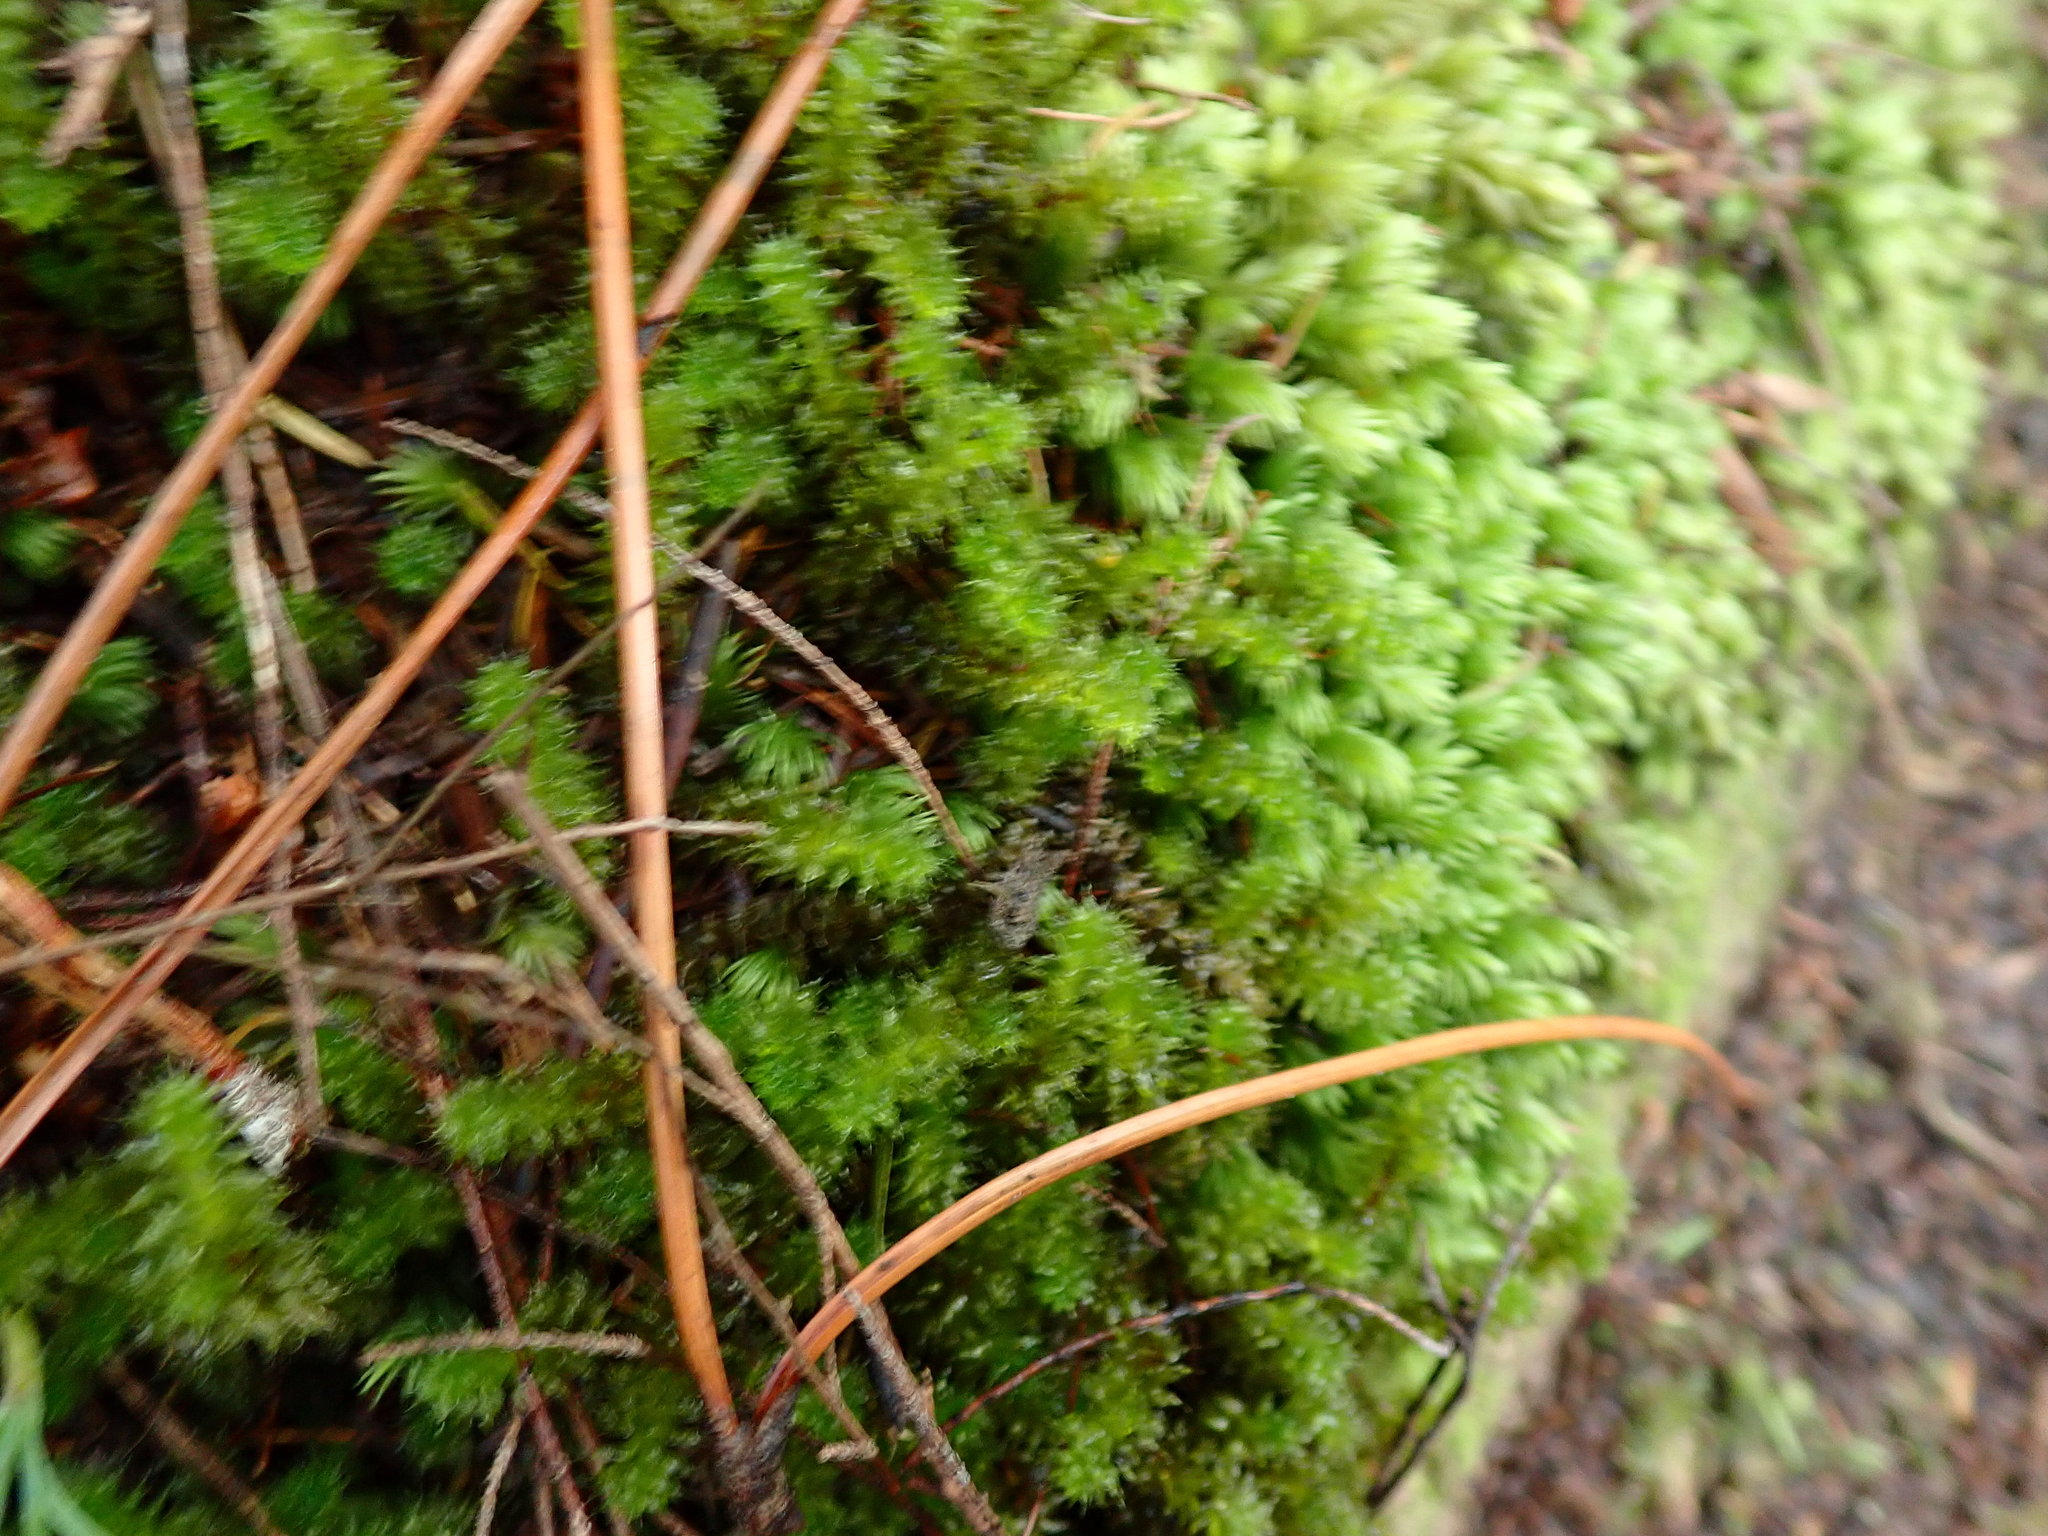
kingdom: Plantae
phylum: Bryophyta
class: Bryopsida
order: Ptychomniales
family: Ptychomniaceae
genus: Ptychomnion
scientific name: Ptychomnion aciculare
